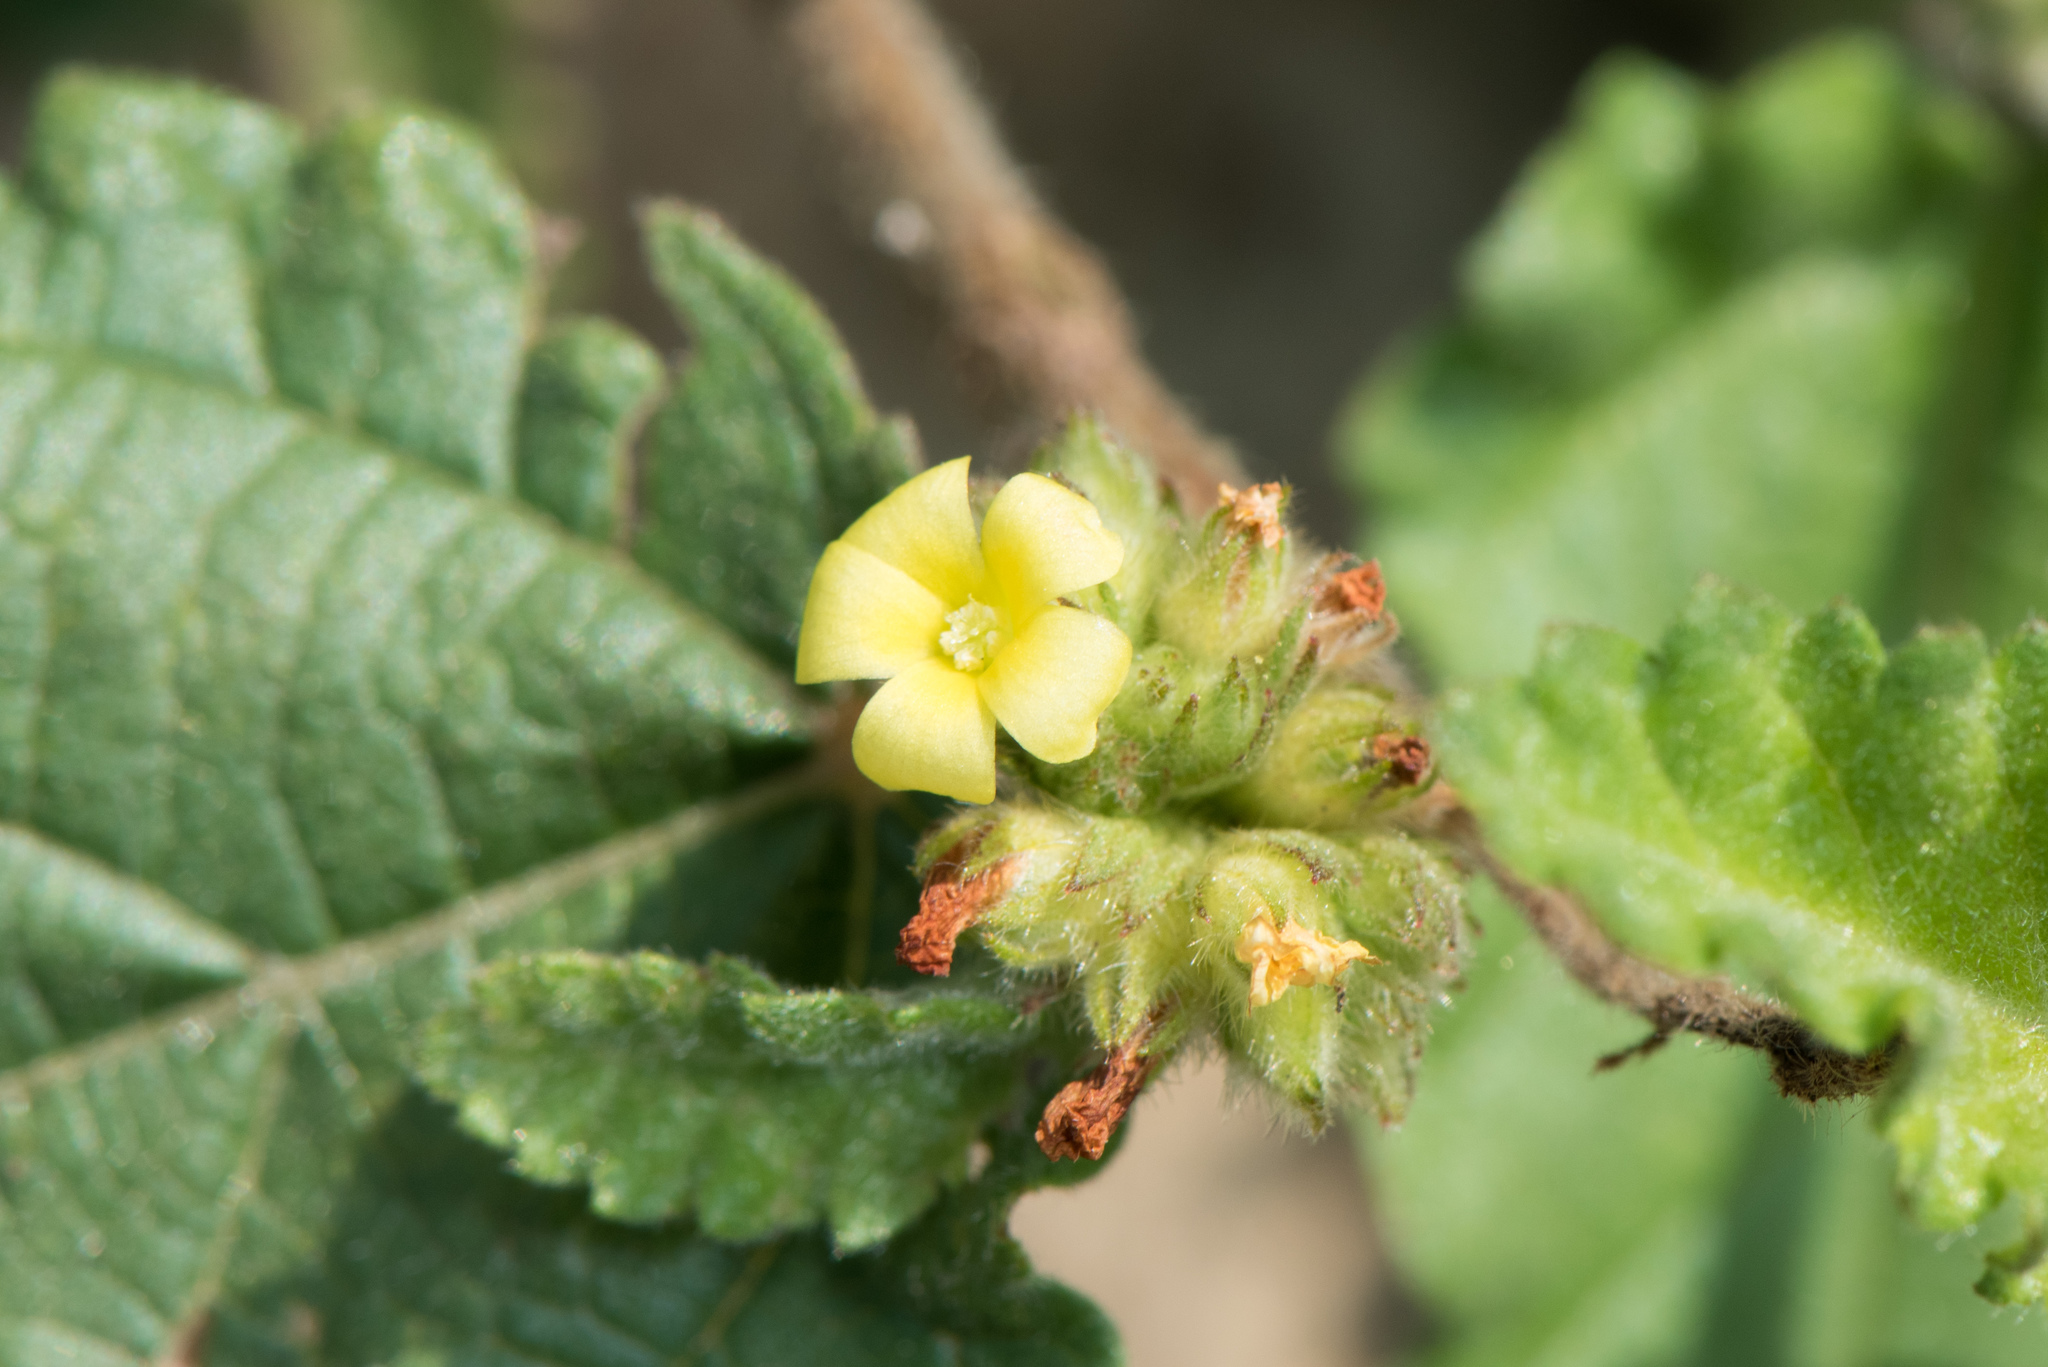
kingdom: Plantae
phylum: Tracheophyta
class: Magnoliopsida
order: Malvales
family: Malvaceae
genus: Waltheria
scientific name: Waltheria indica
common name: Leather-coat
